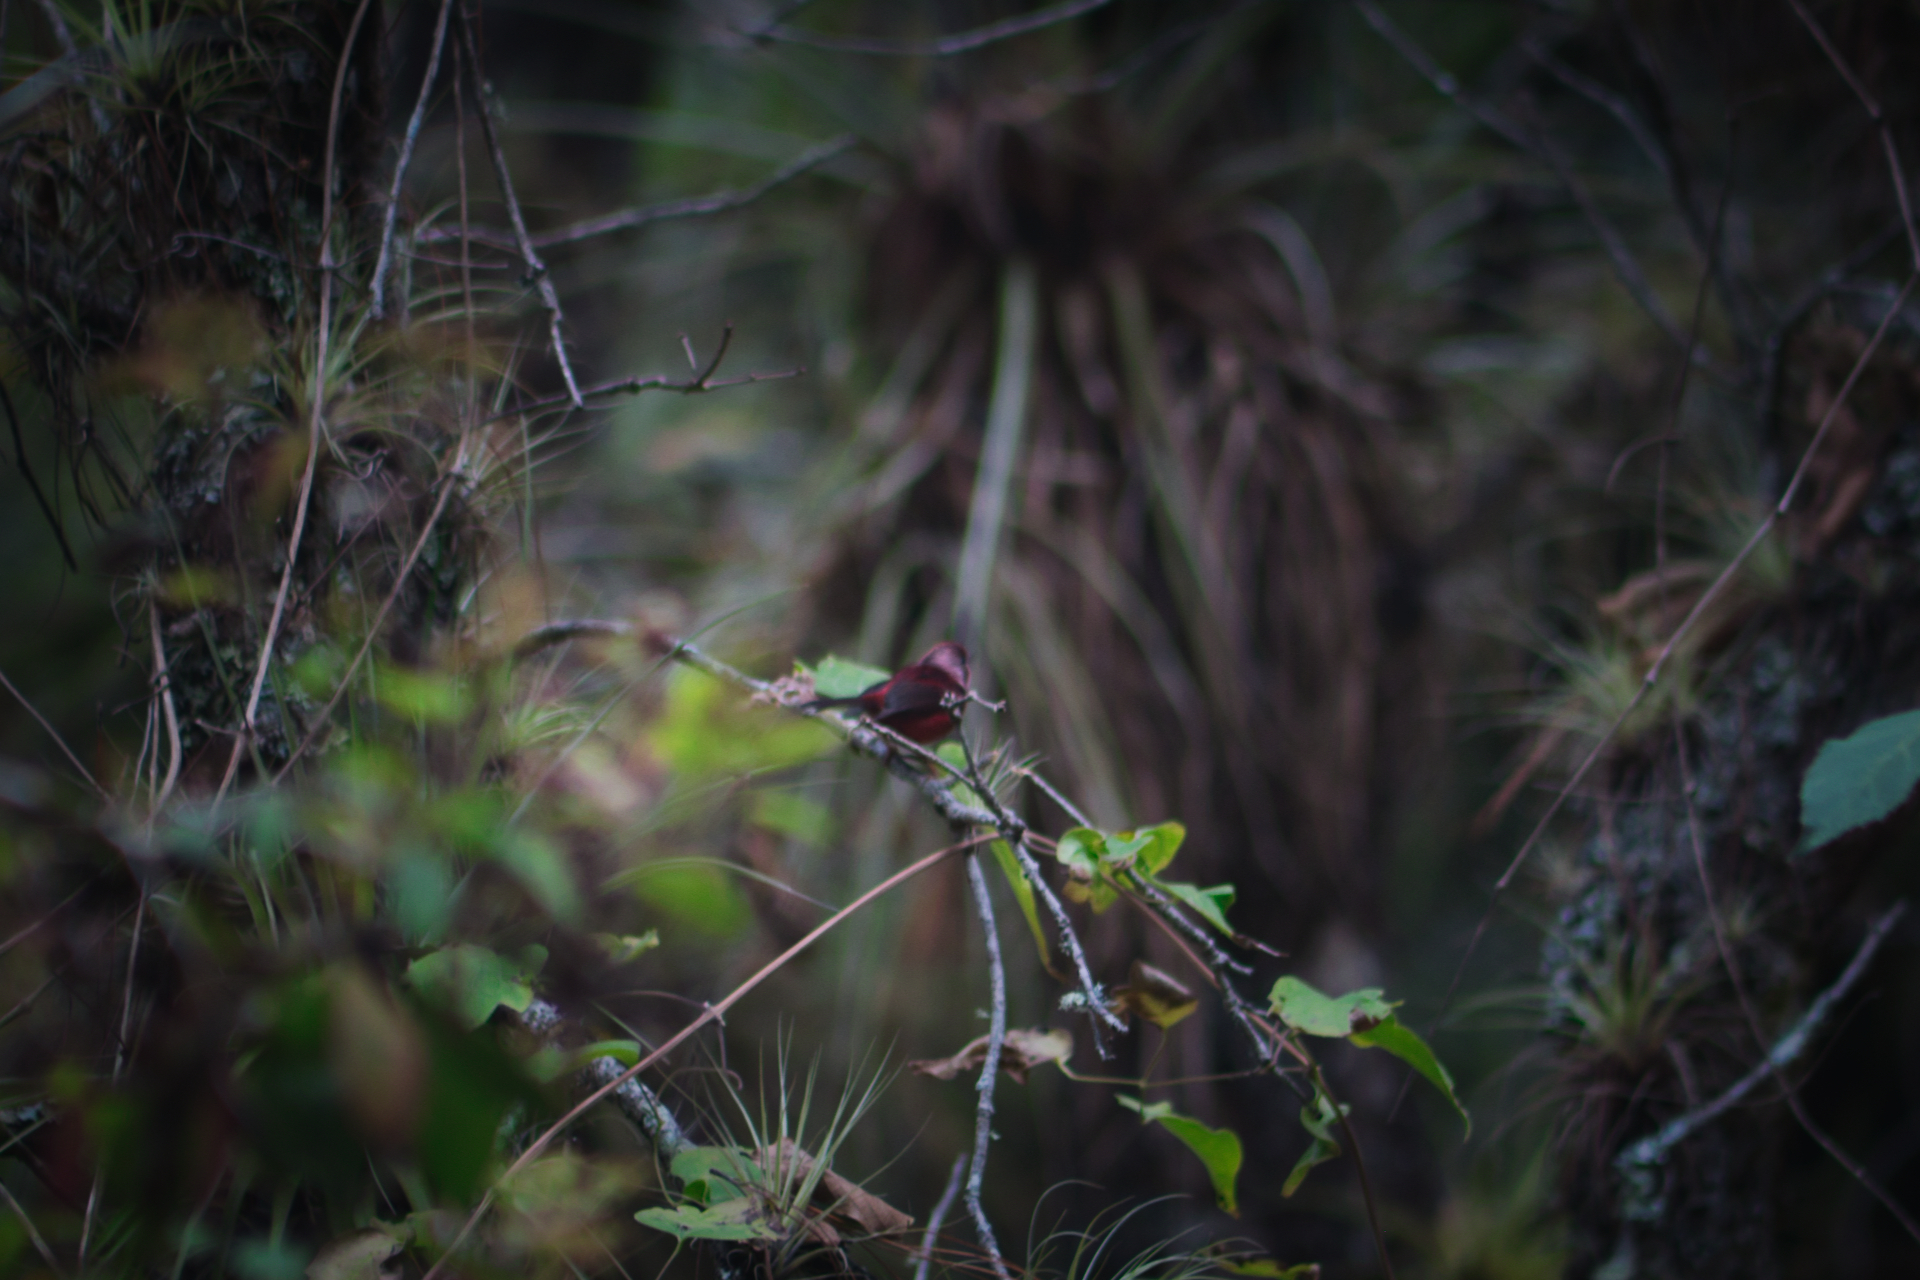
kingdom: Animalia
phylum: Chordata
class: Aves
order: Passeriformes
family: Parulidae
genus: Cardellina
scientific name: Cardellina versicolor
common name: Pink-headed warbler
